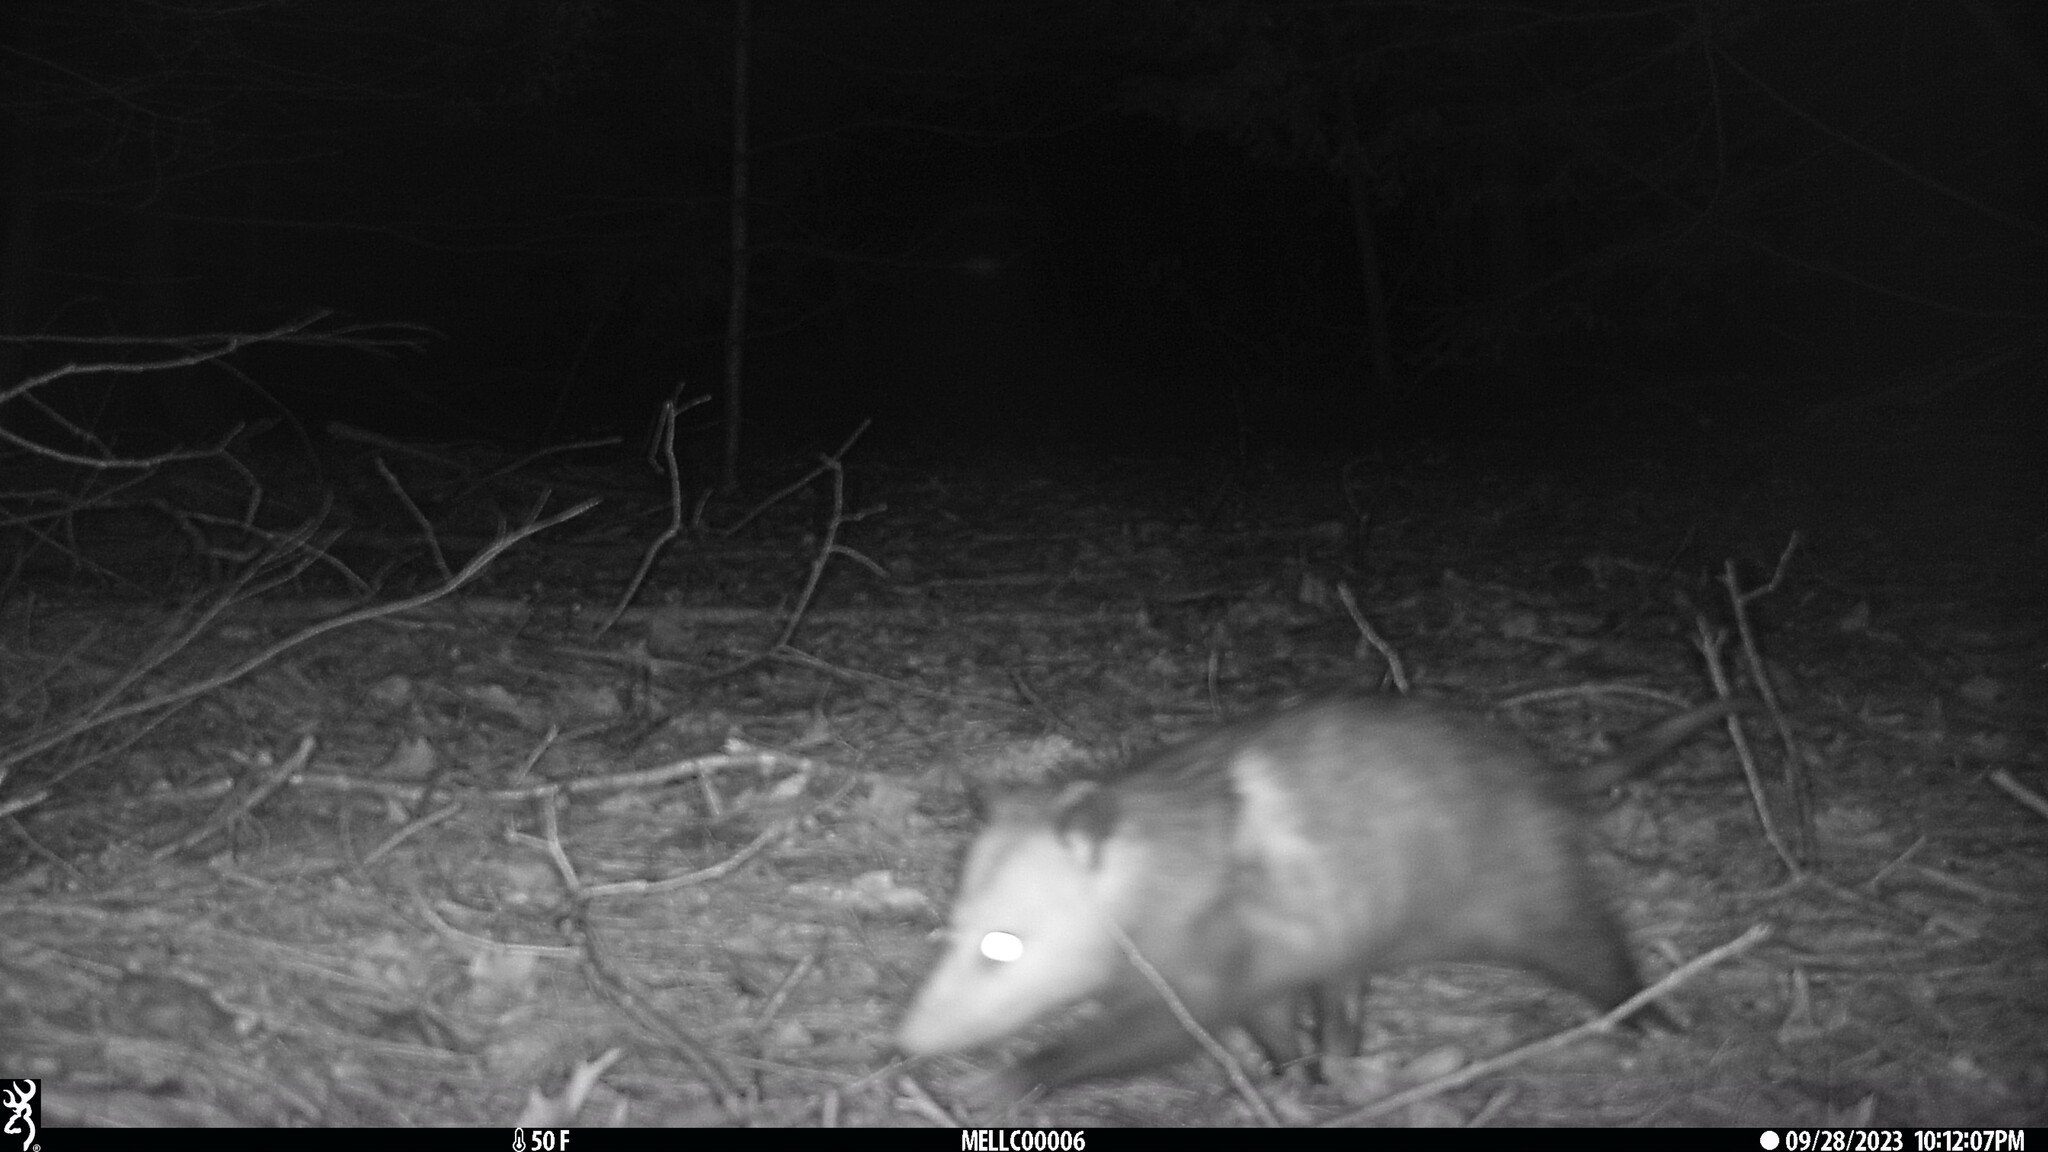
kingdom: Animalia
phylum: Chordata
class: Mammalia
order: Didelphimorphia
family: Didelphidae
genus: Didelphis
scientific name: Didelphis virginiana
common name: Virginia opossum
